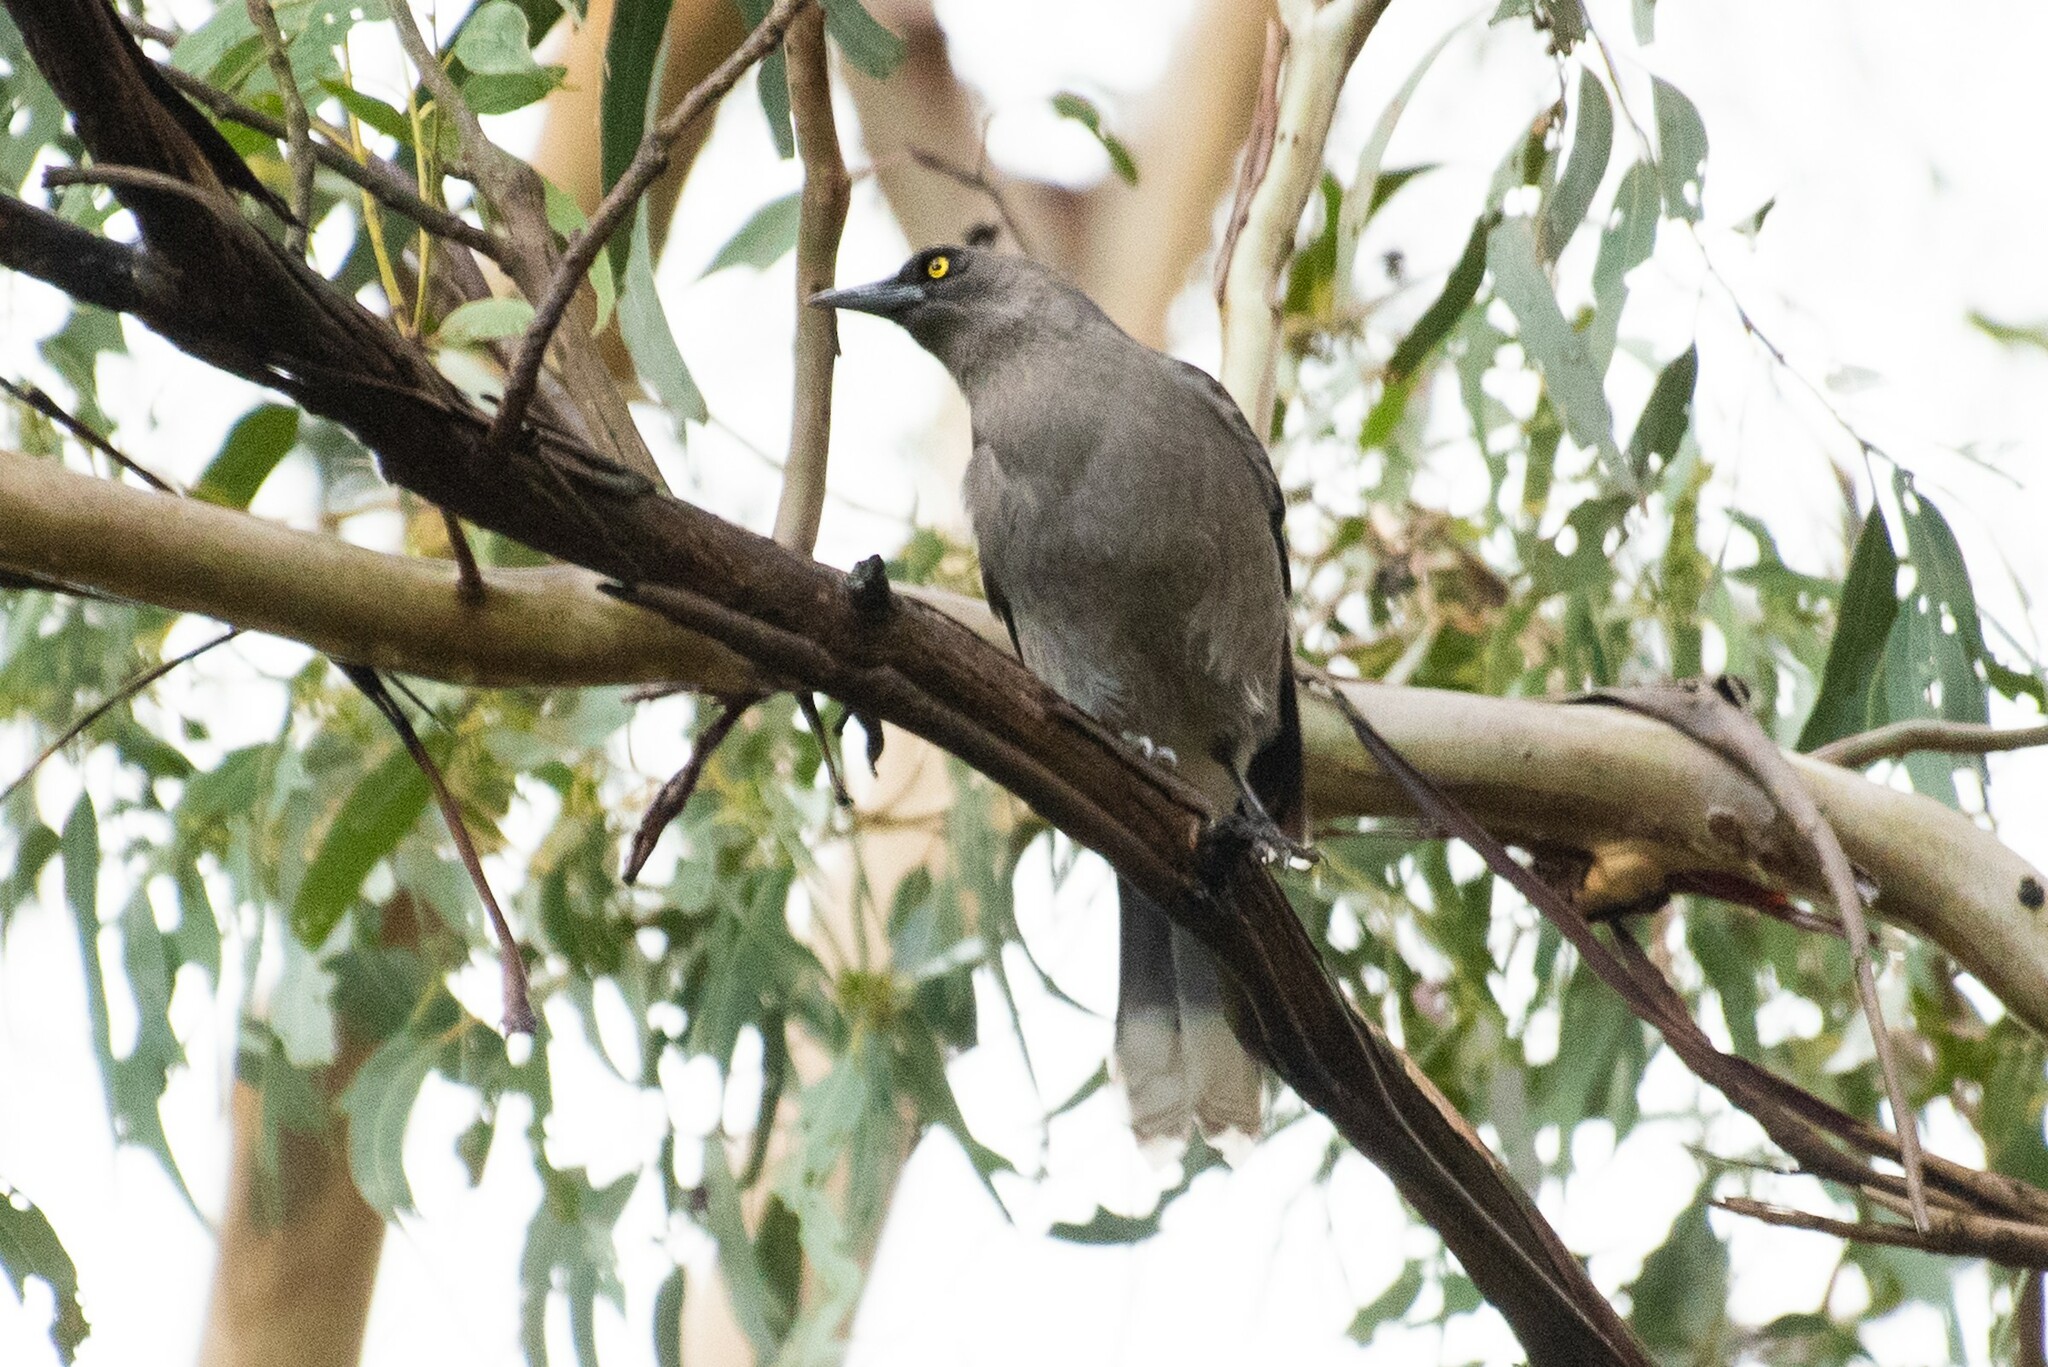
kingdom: Animalia
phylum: Chordata
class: Aves
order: Passeriformes
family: Cracticidae
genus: Strepera
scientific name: Strepera versicolor
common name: Grey currawong
